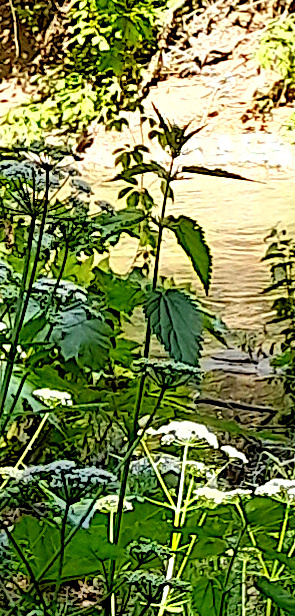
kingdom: Plantae
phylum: Tracheophyta
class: Magnoliopsida
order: Rosales
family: Urticaceae
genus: Urtica
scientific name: Urtica dioica
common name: Common nettle
